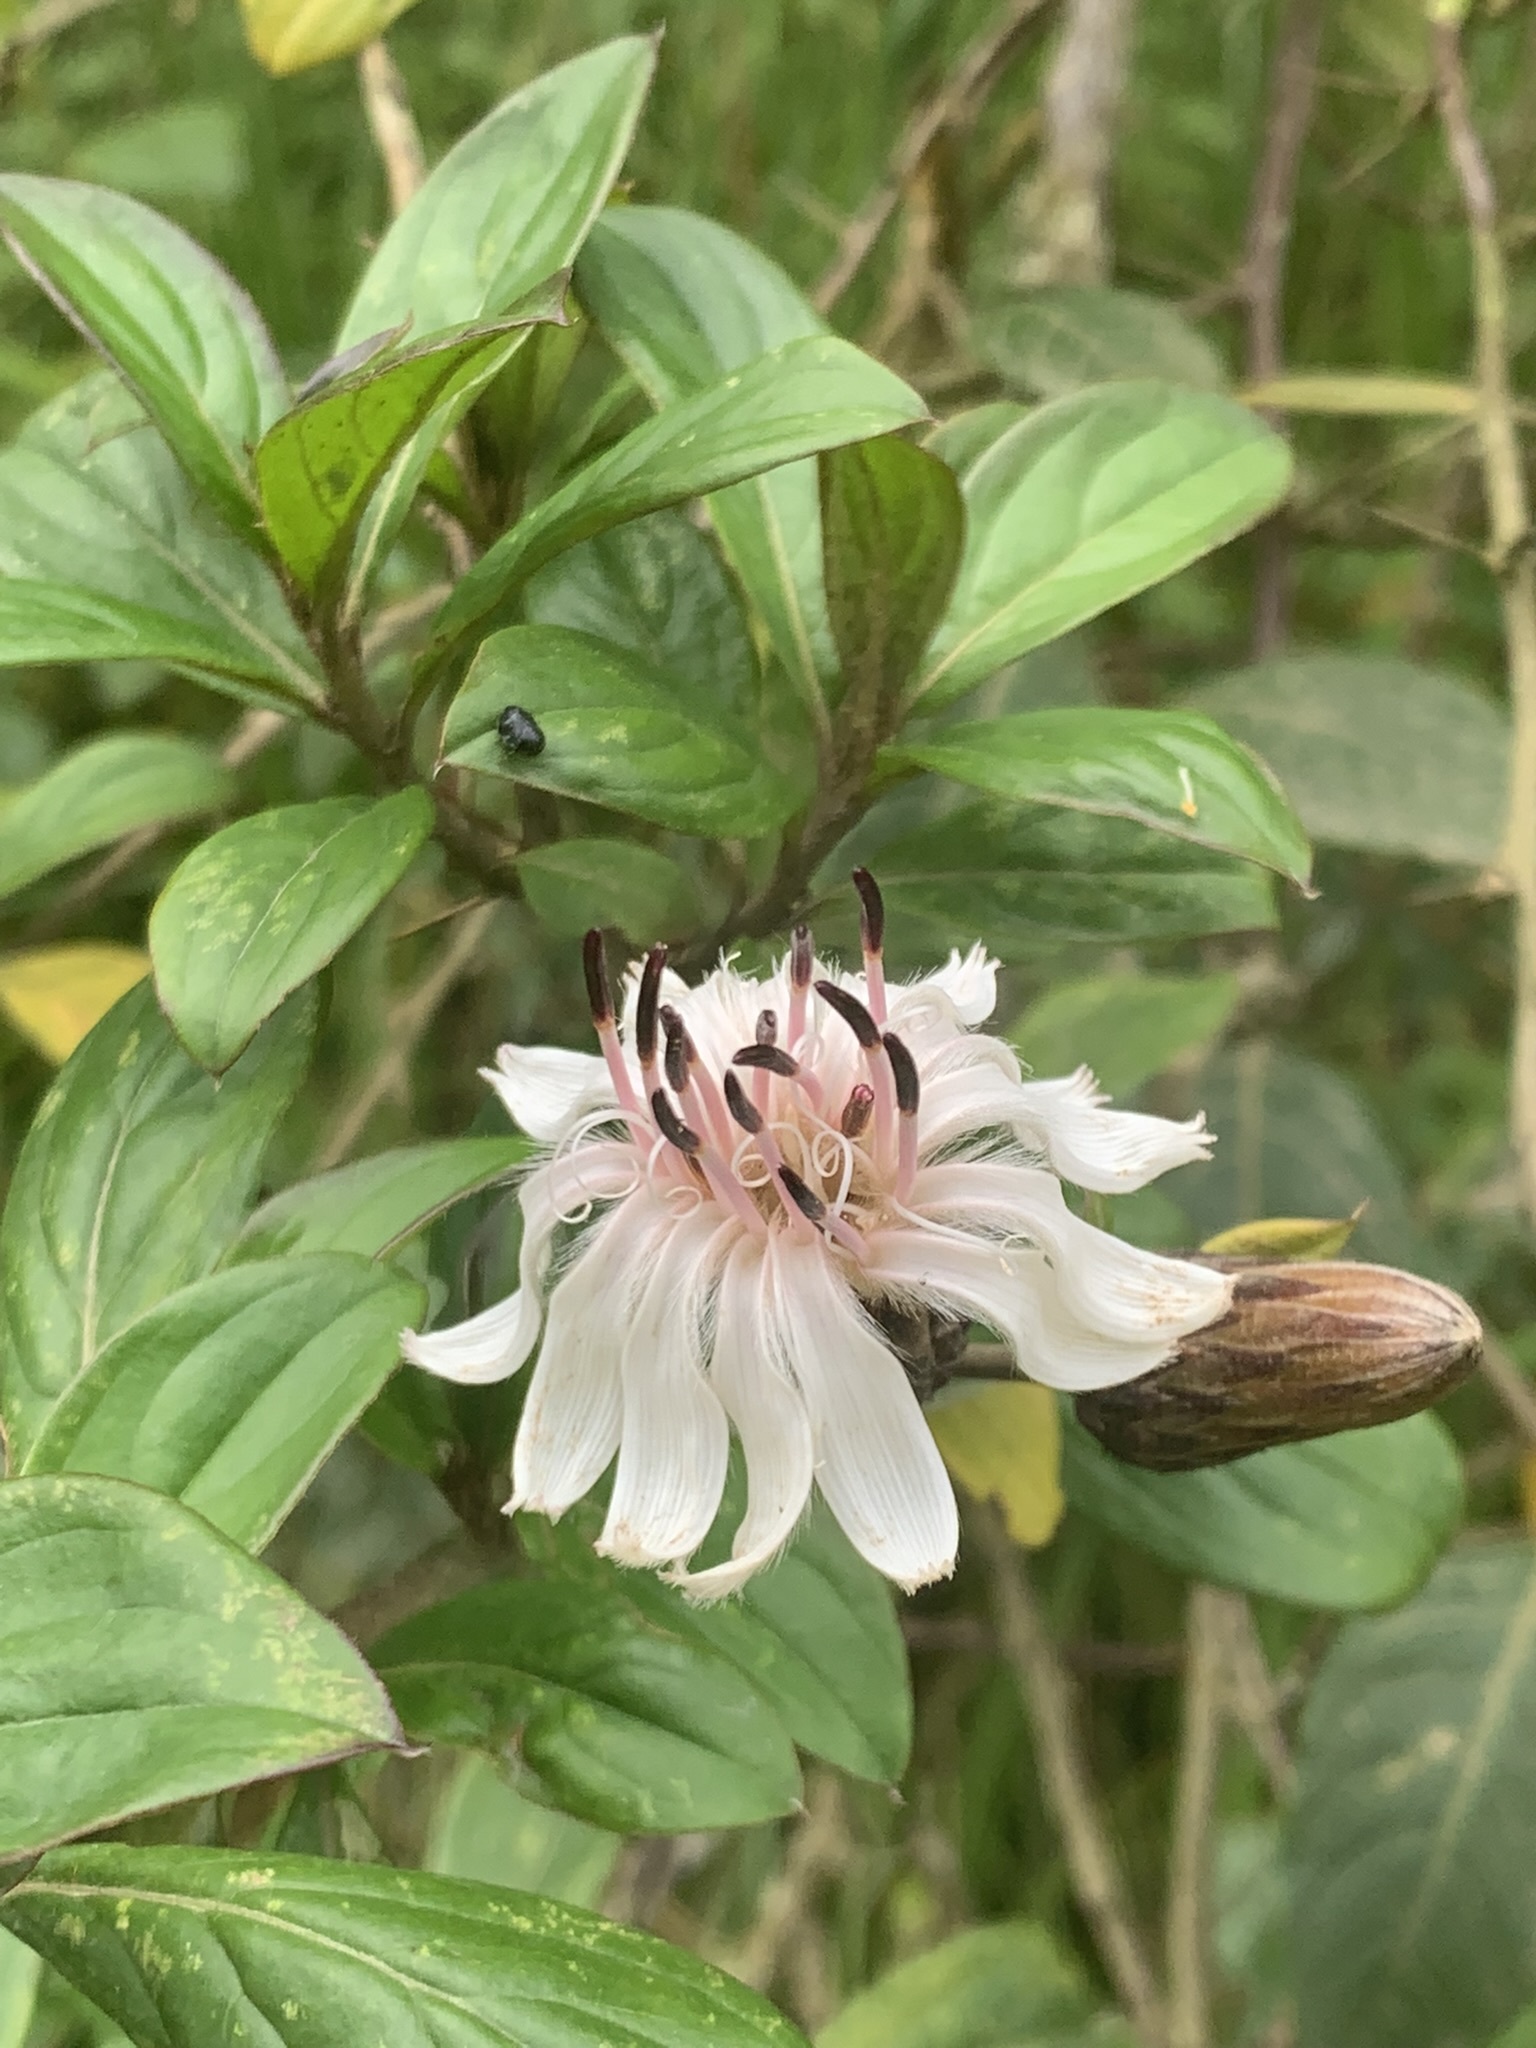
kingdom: Plantae
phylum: Tracheophyta
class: Magnoliopsida
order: Asterales
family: Asteraceae
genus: Barnadesia
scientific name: Barnadesia spinosa
